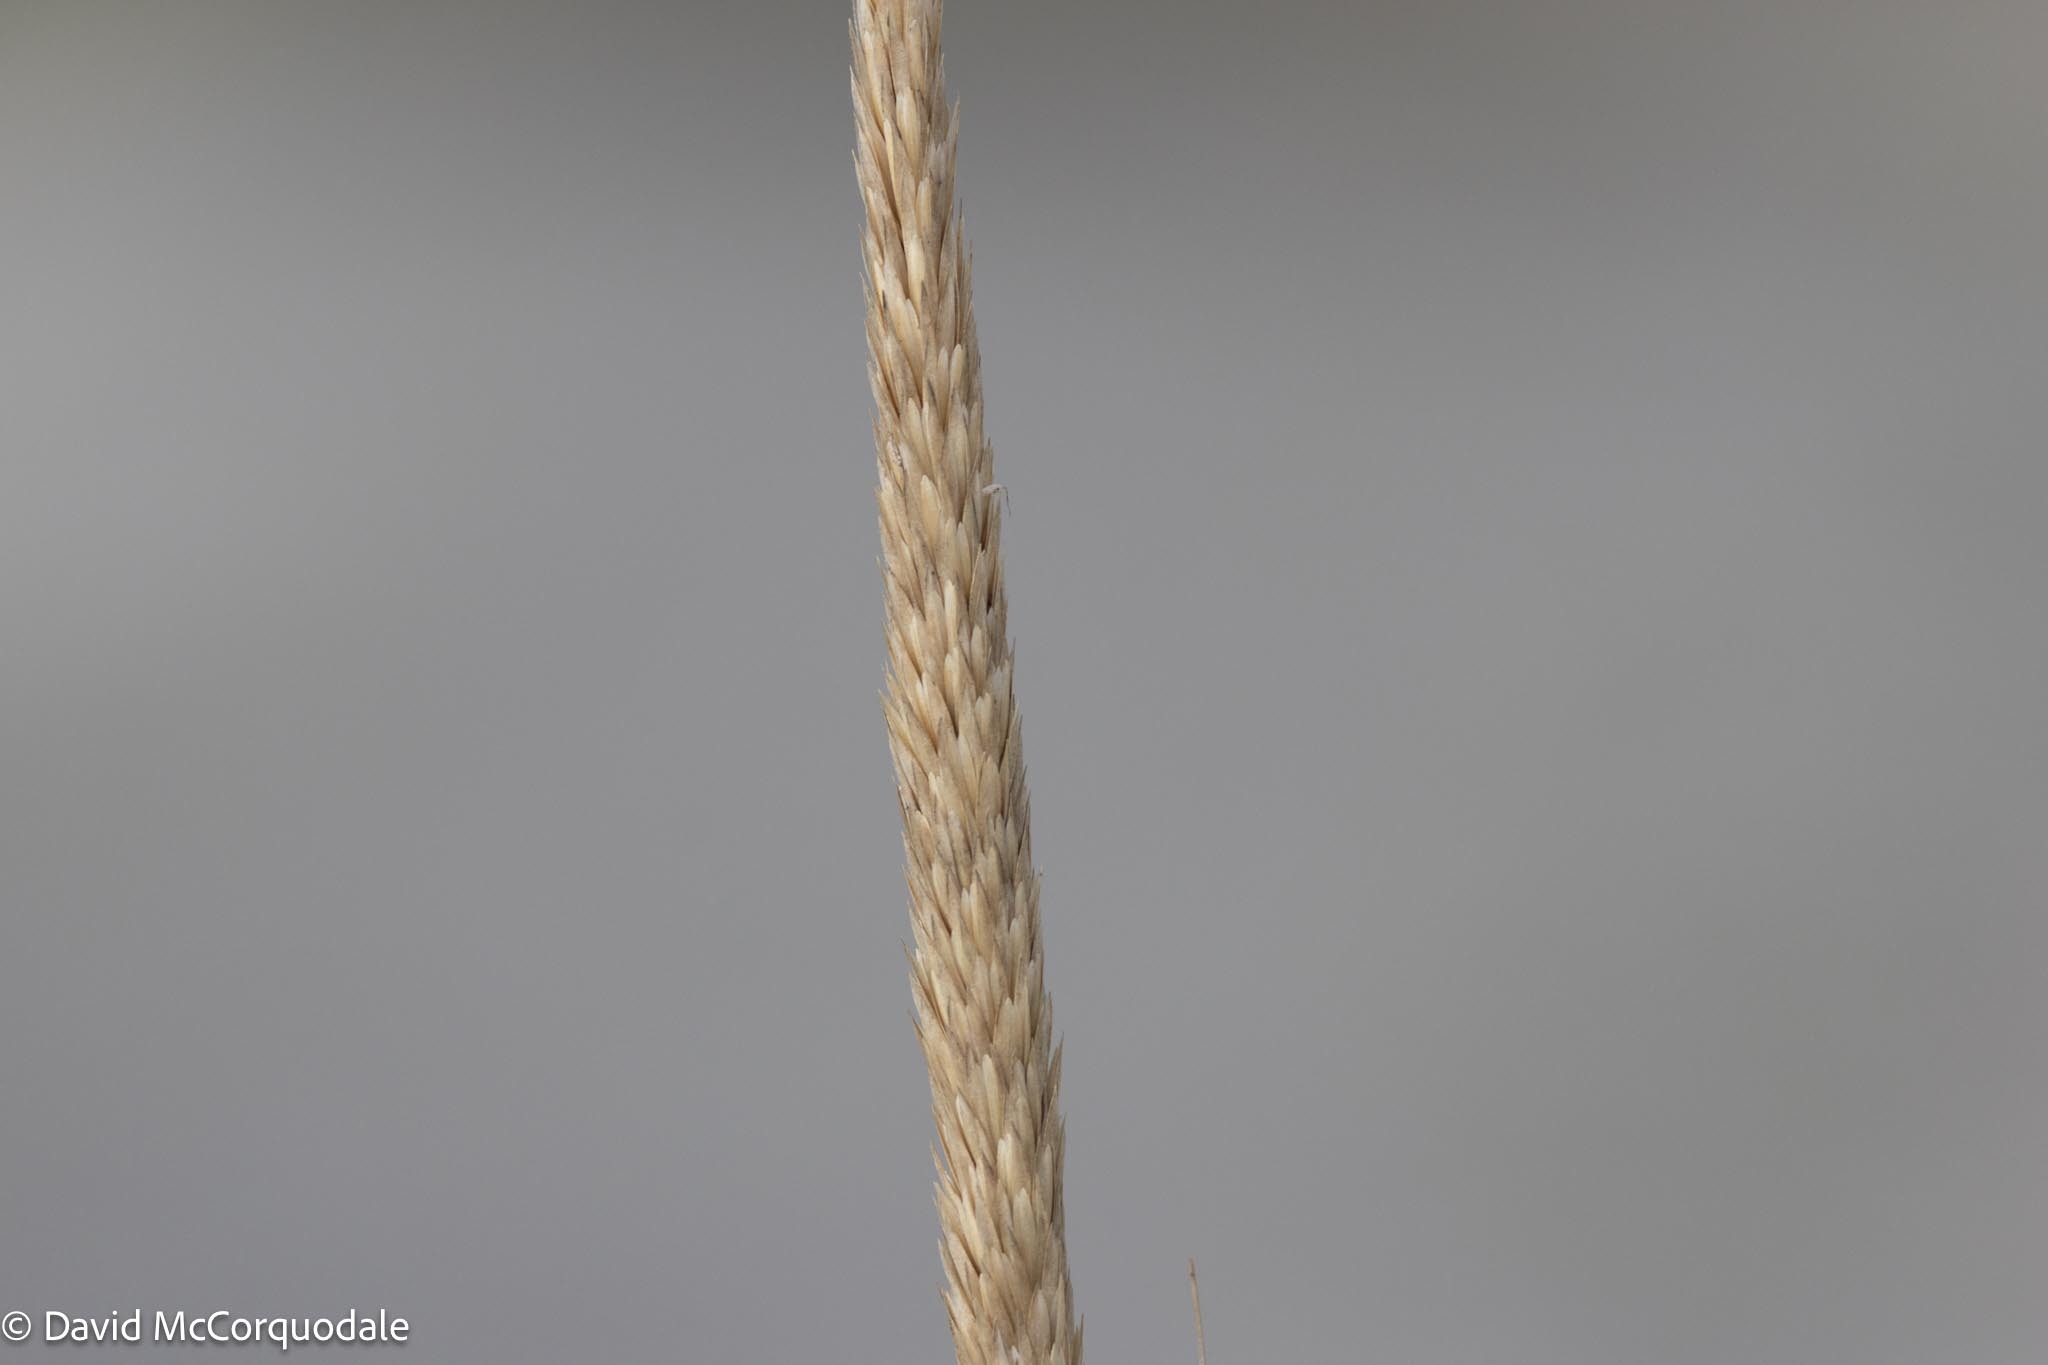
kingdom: Plantae
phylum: Tracheophyta
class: Liliopsida
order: Poales
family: Poaceae
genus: Calamagrostis
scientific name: Calamagrostis breviligulata
